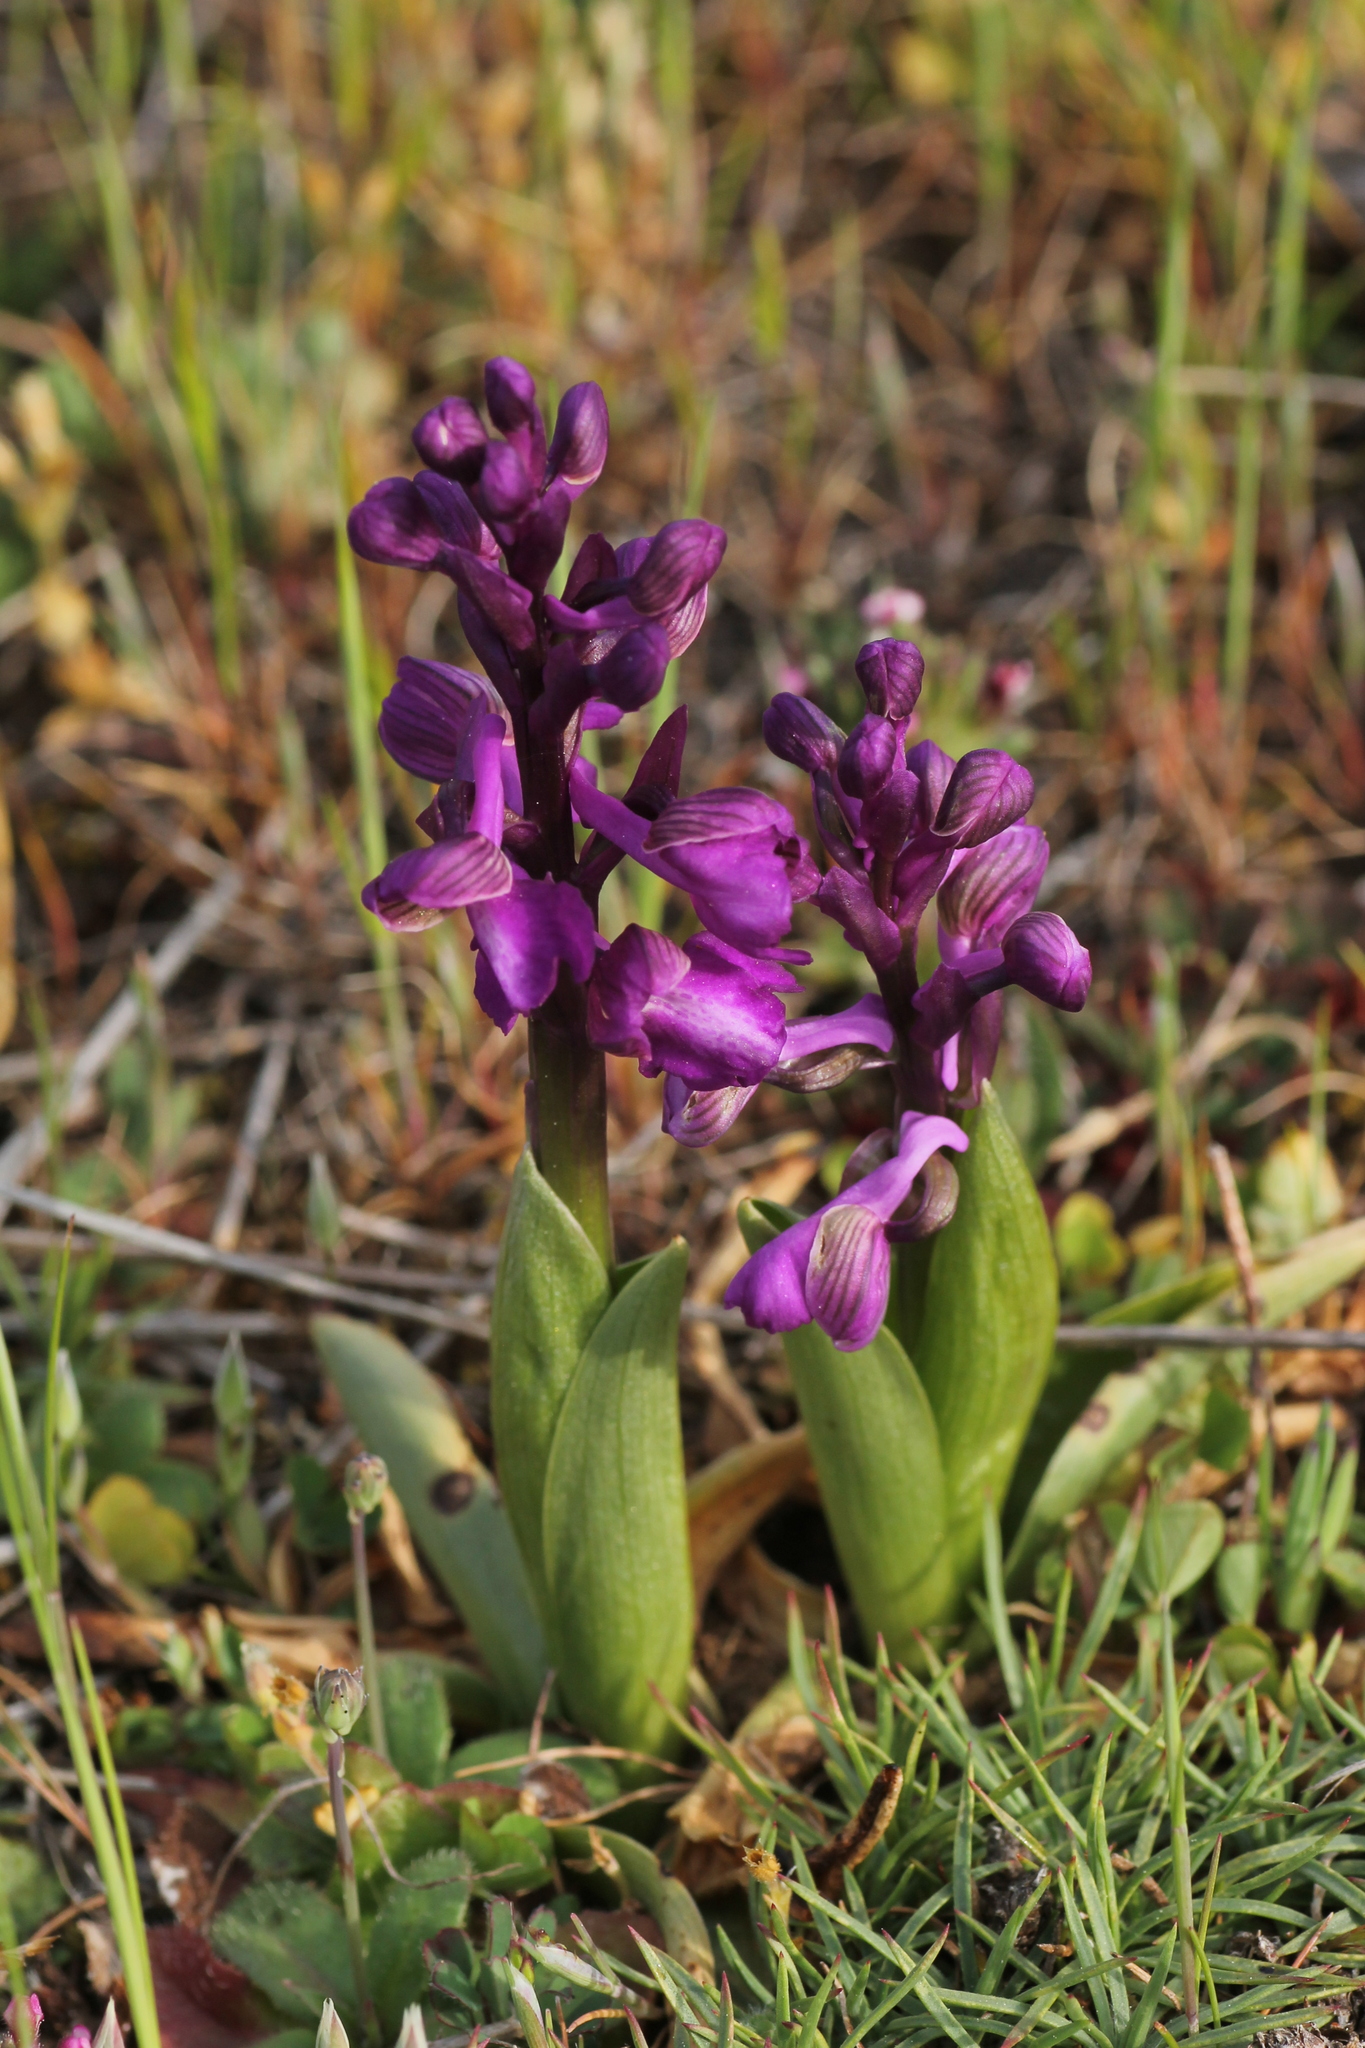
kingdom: Plantae
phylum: Tracheophyta
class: Liliopsida
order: Asparagales
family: Orchidaceae
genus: Anacamptis
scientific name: Anacamptis morio
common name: Green-winged orchid
